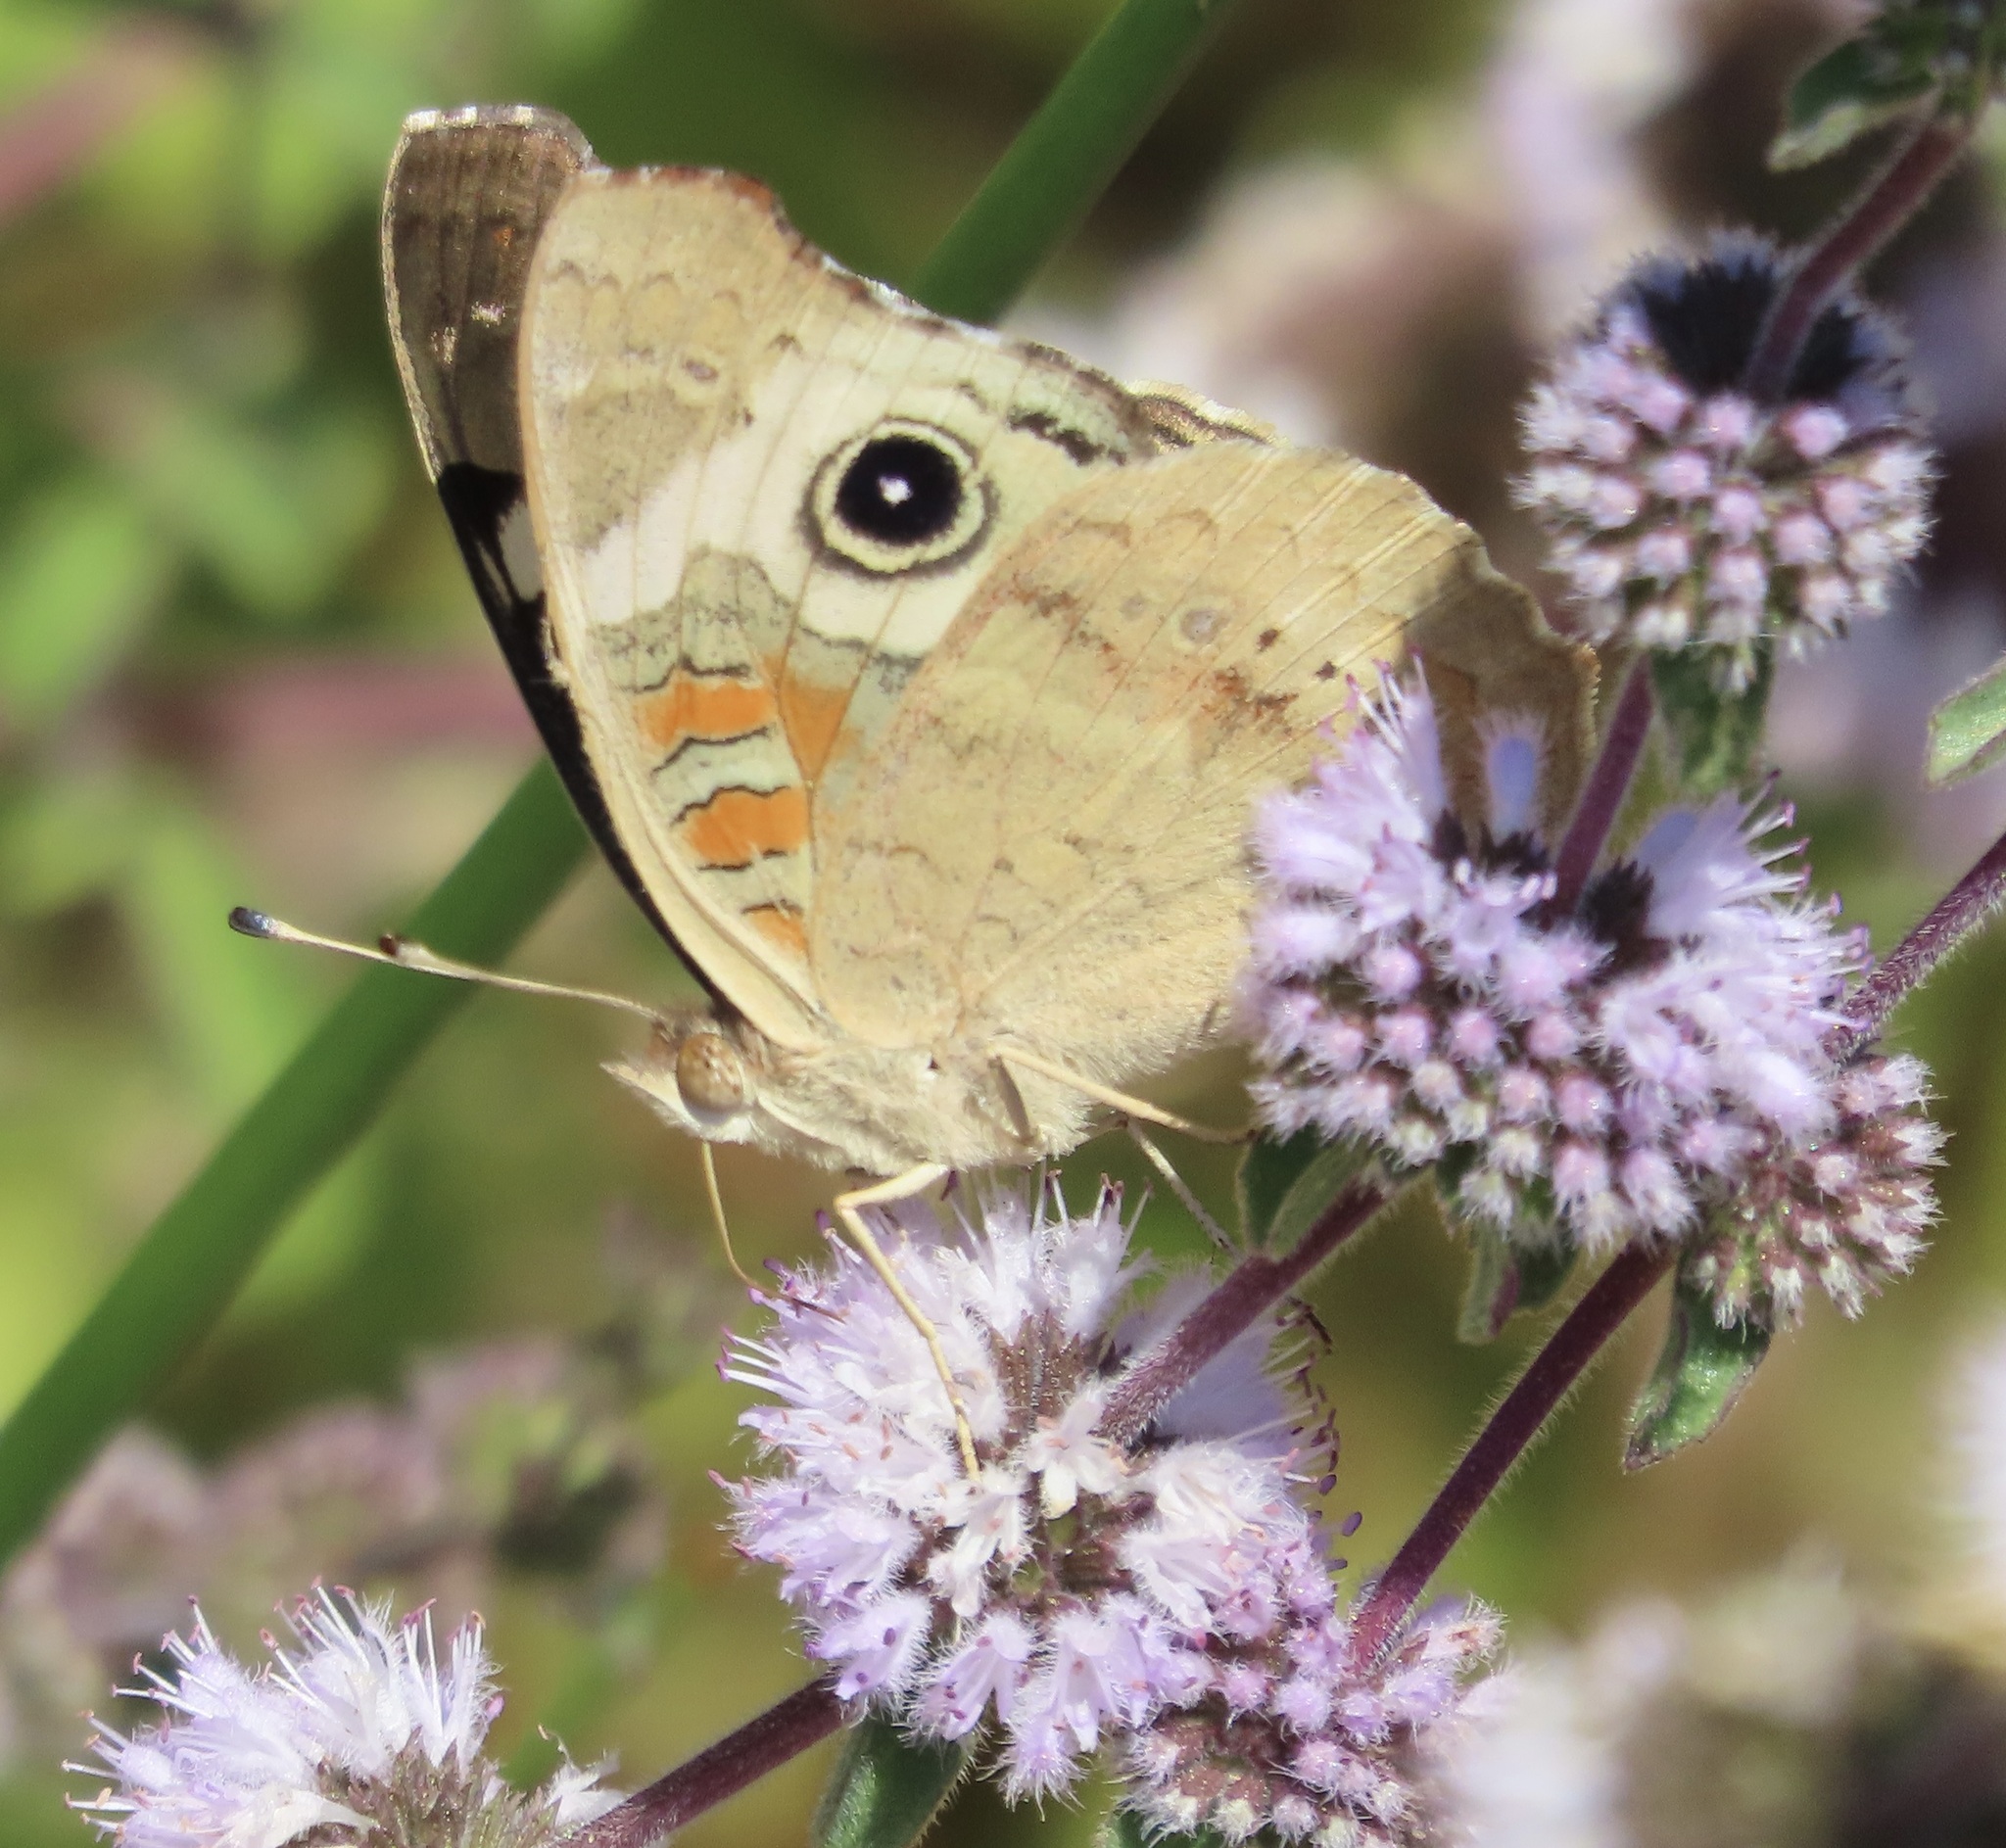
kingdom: Animalia
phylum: Arthropoda
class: Insecta
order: Lepidoptera
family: Nymphalidae
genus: Junonia
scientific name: Junonia grisea
